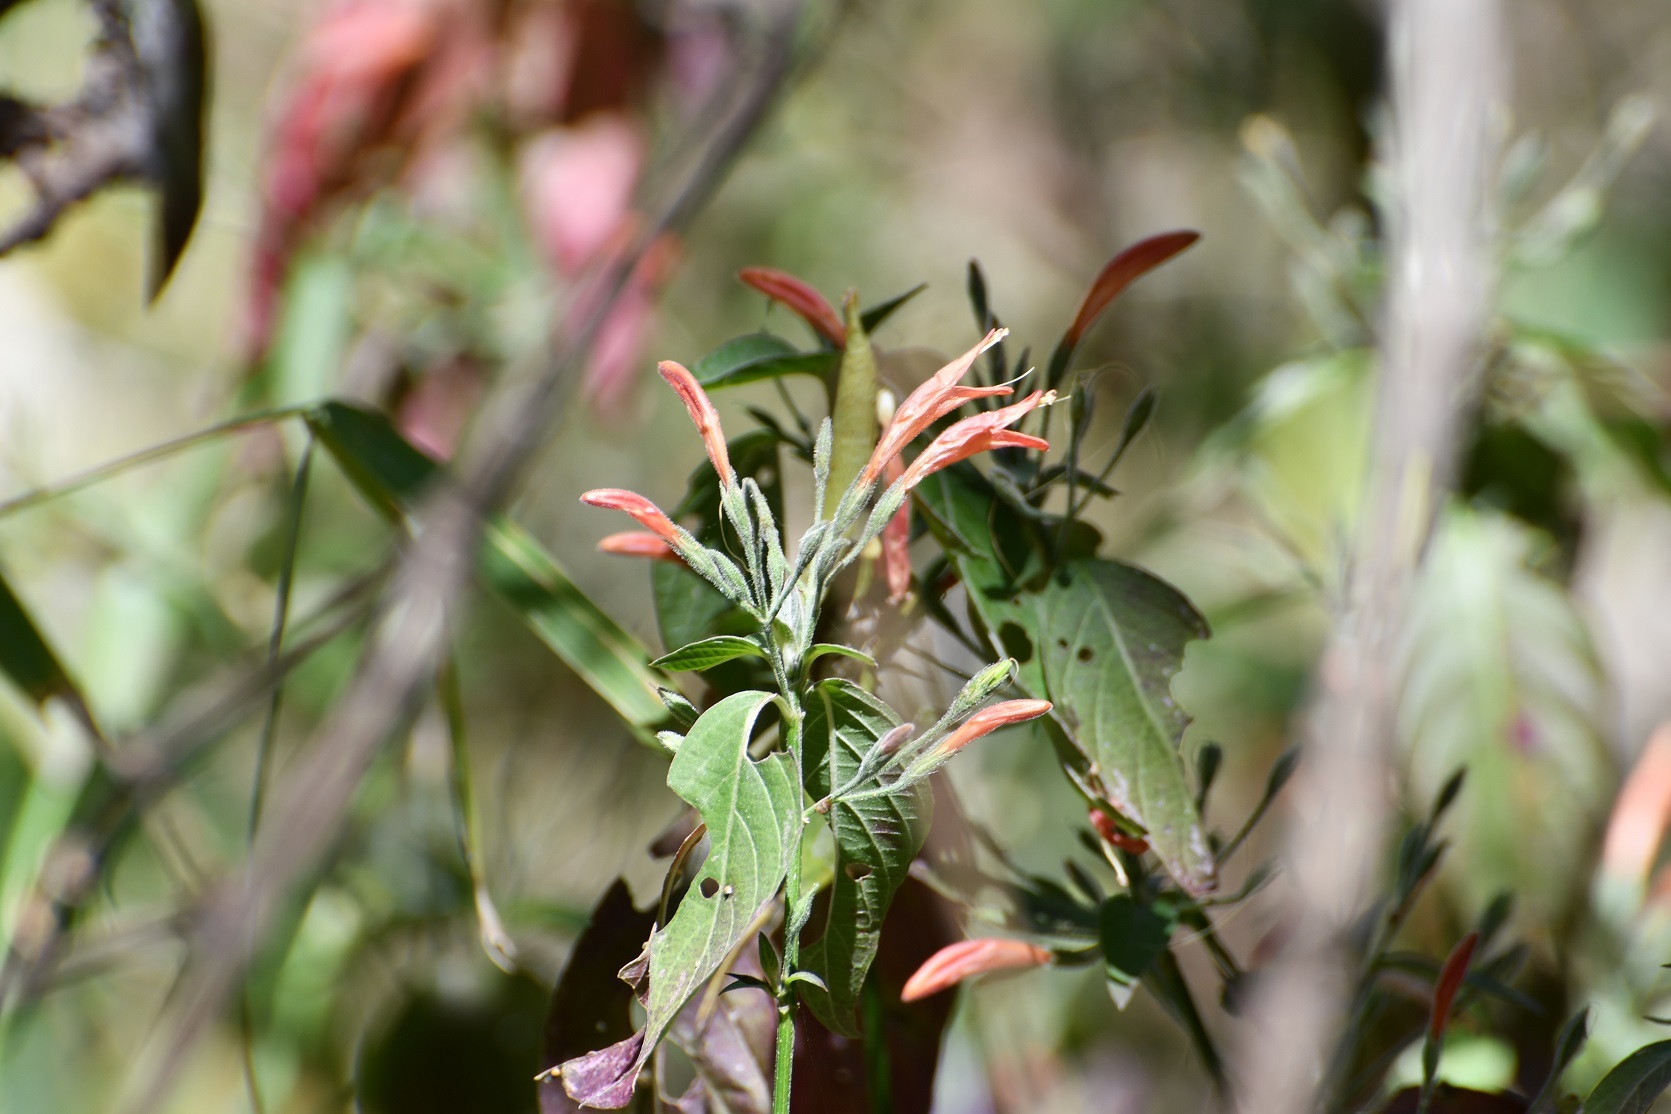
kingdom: Plantae
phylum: Tracheophyta
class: Magnoliopsida
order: Lamiales
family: Acanthaceae
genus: Dicliptera
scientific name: Dicliptera sciadephora
